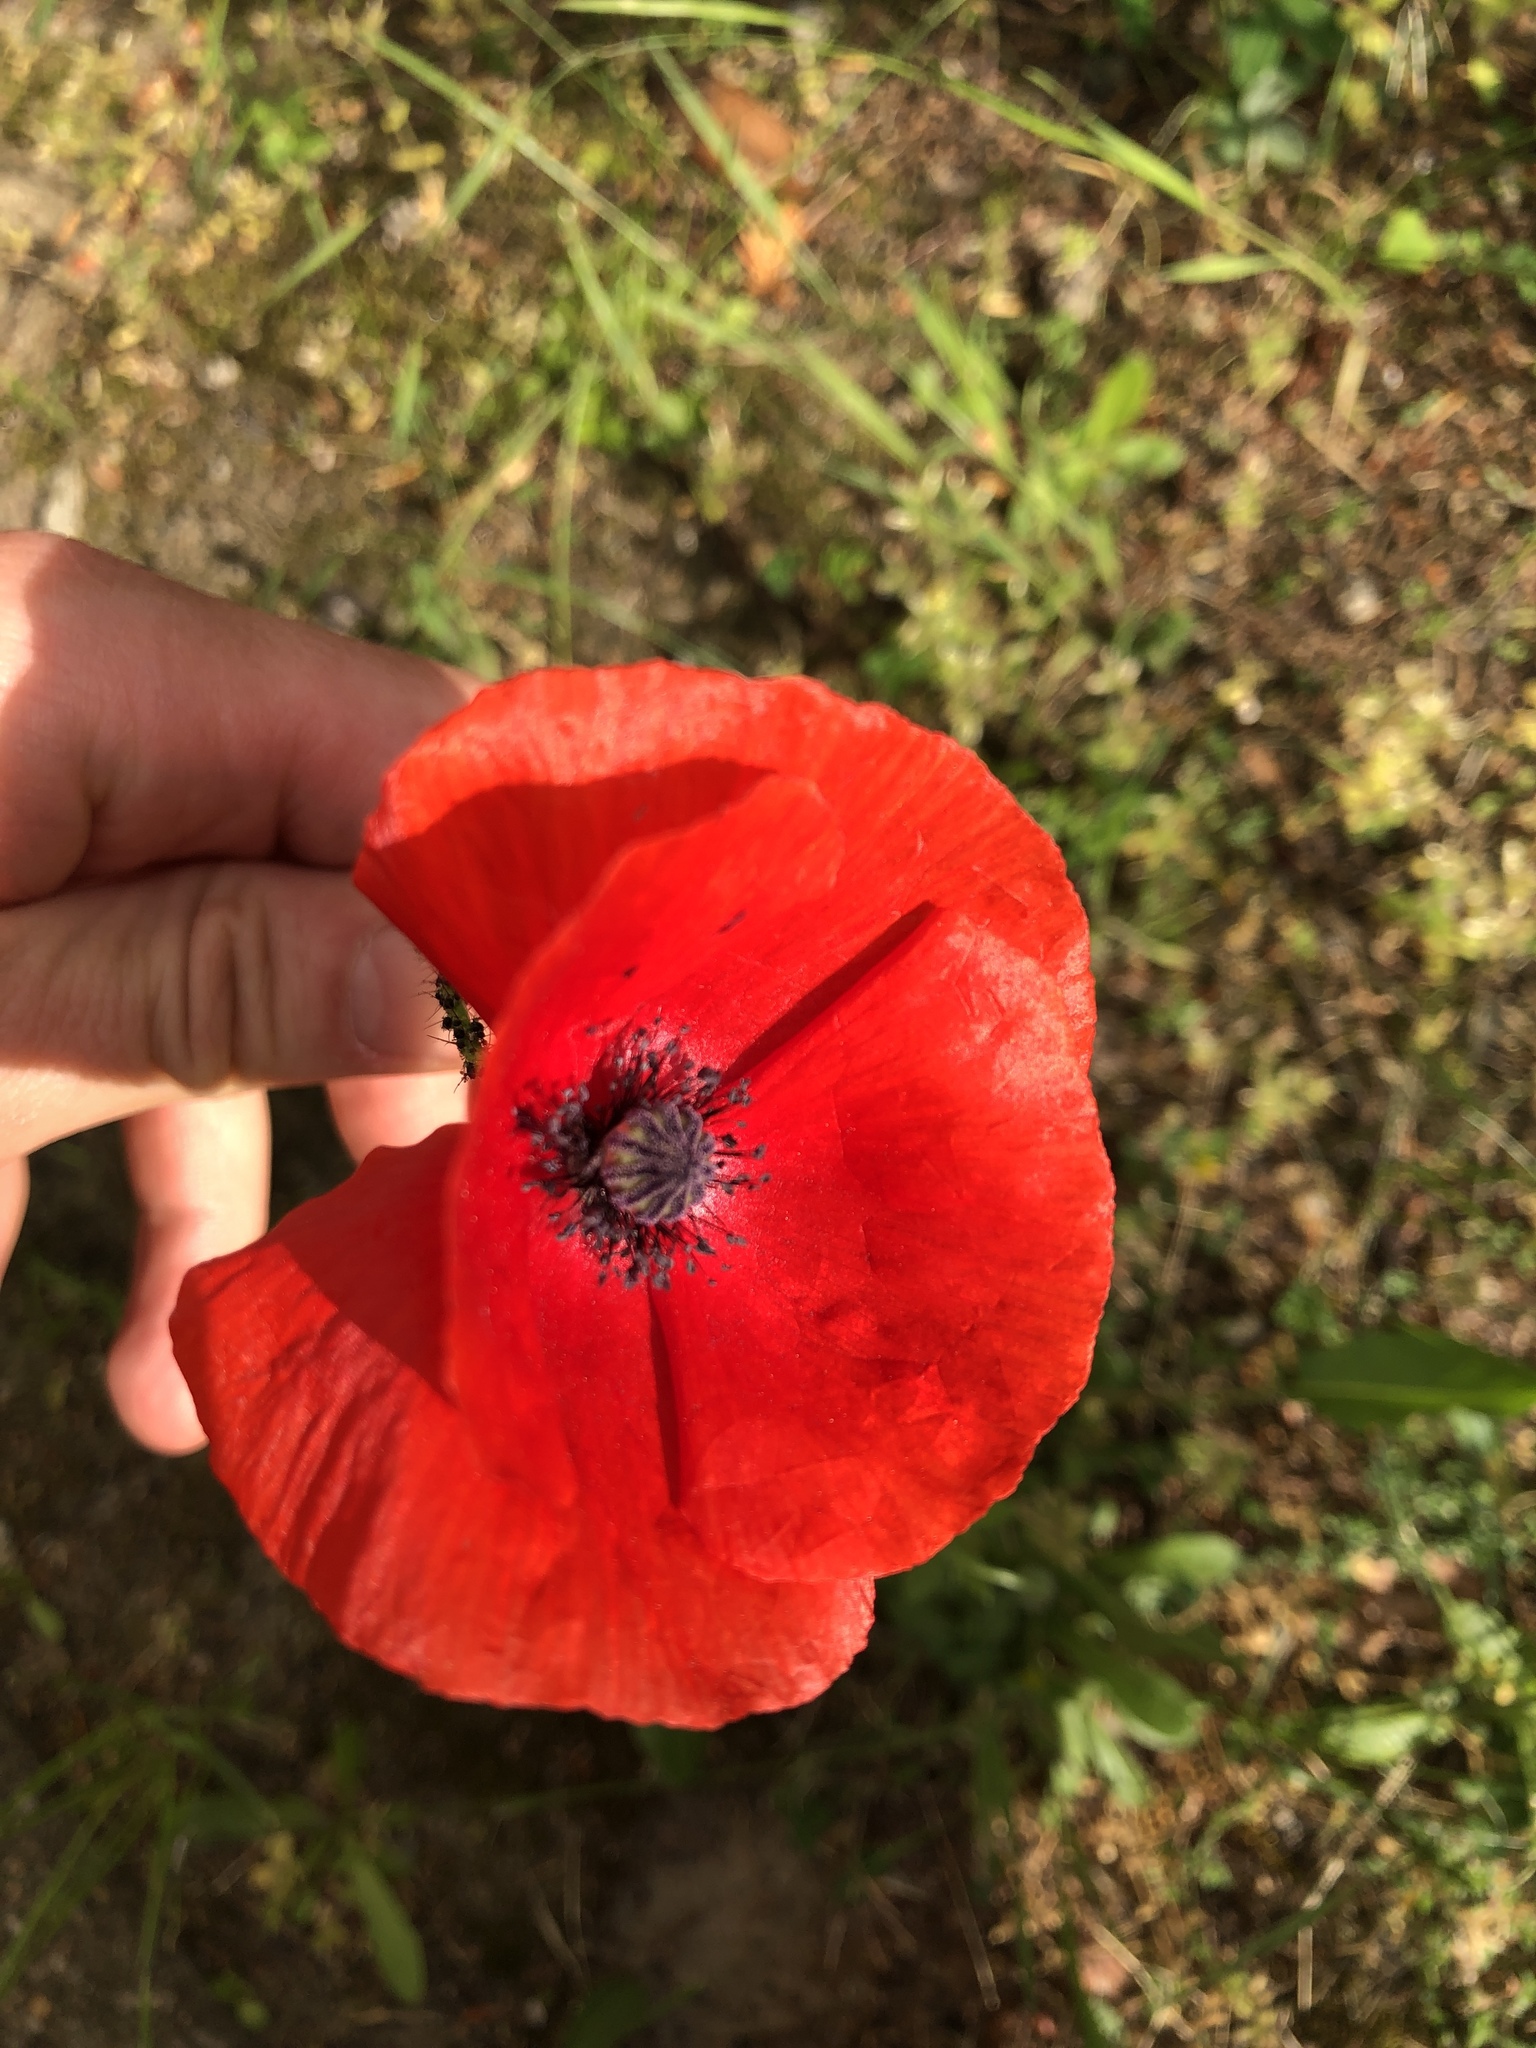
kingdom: Plantae
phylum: Tracheophyta
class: Magnoliopsida
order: Ranunculales
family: Papaveraceae
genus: Papaver
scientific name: Papaver rhoeas
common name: Corn poppy
